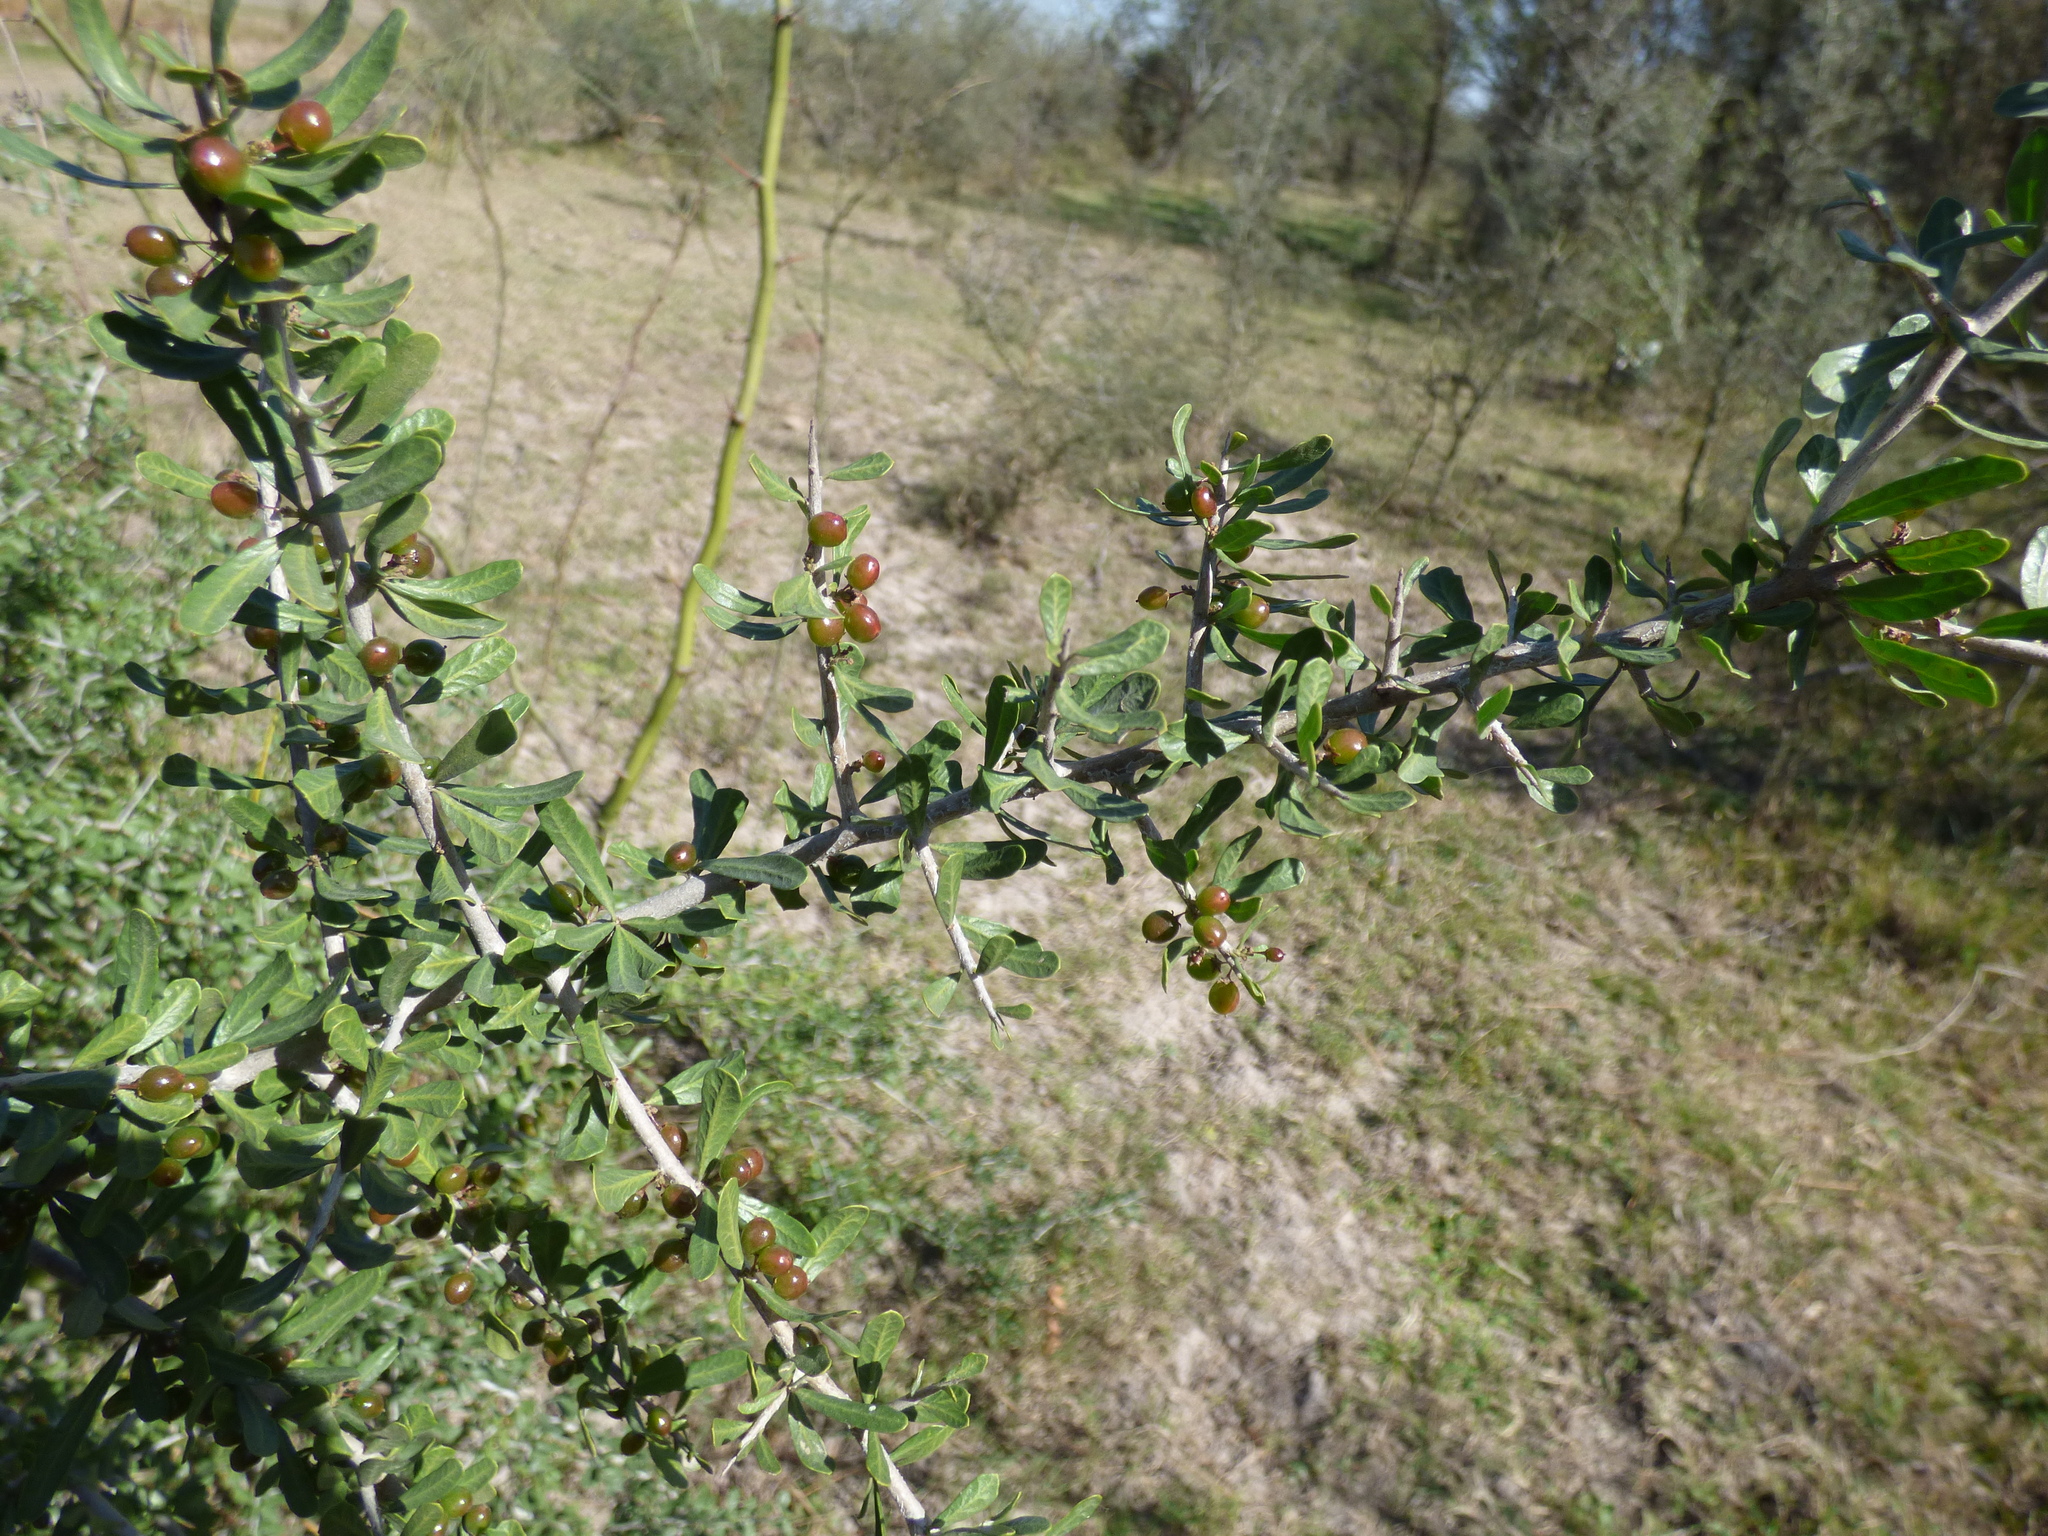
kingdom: Plantae
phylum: Tracheophyta
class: Magnoliopsida
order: Sapindales
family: Anacardiaceae
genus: Schinus
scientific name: Schinus fasciculata
